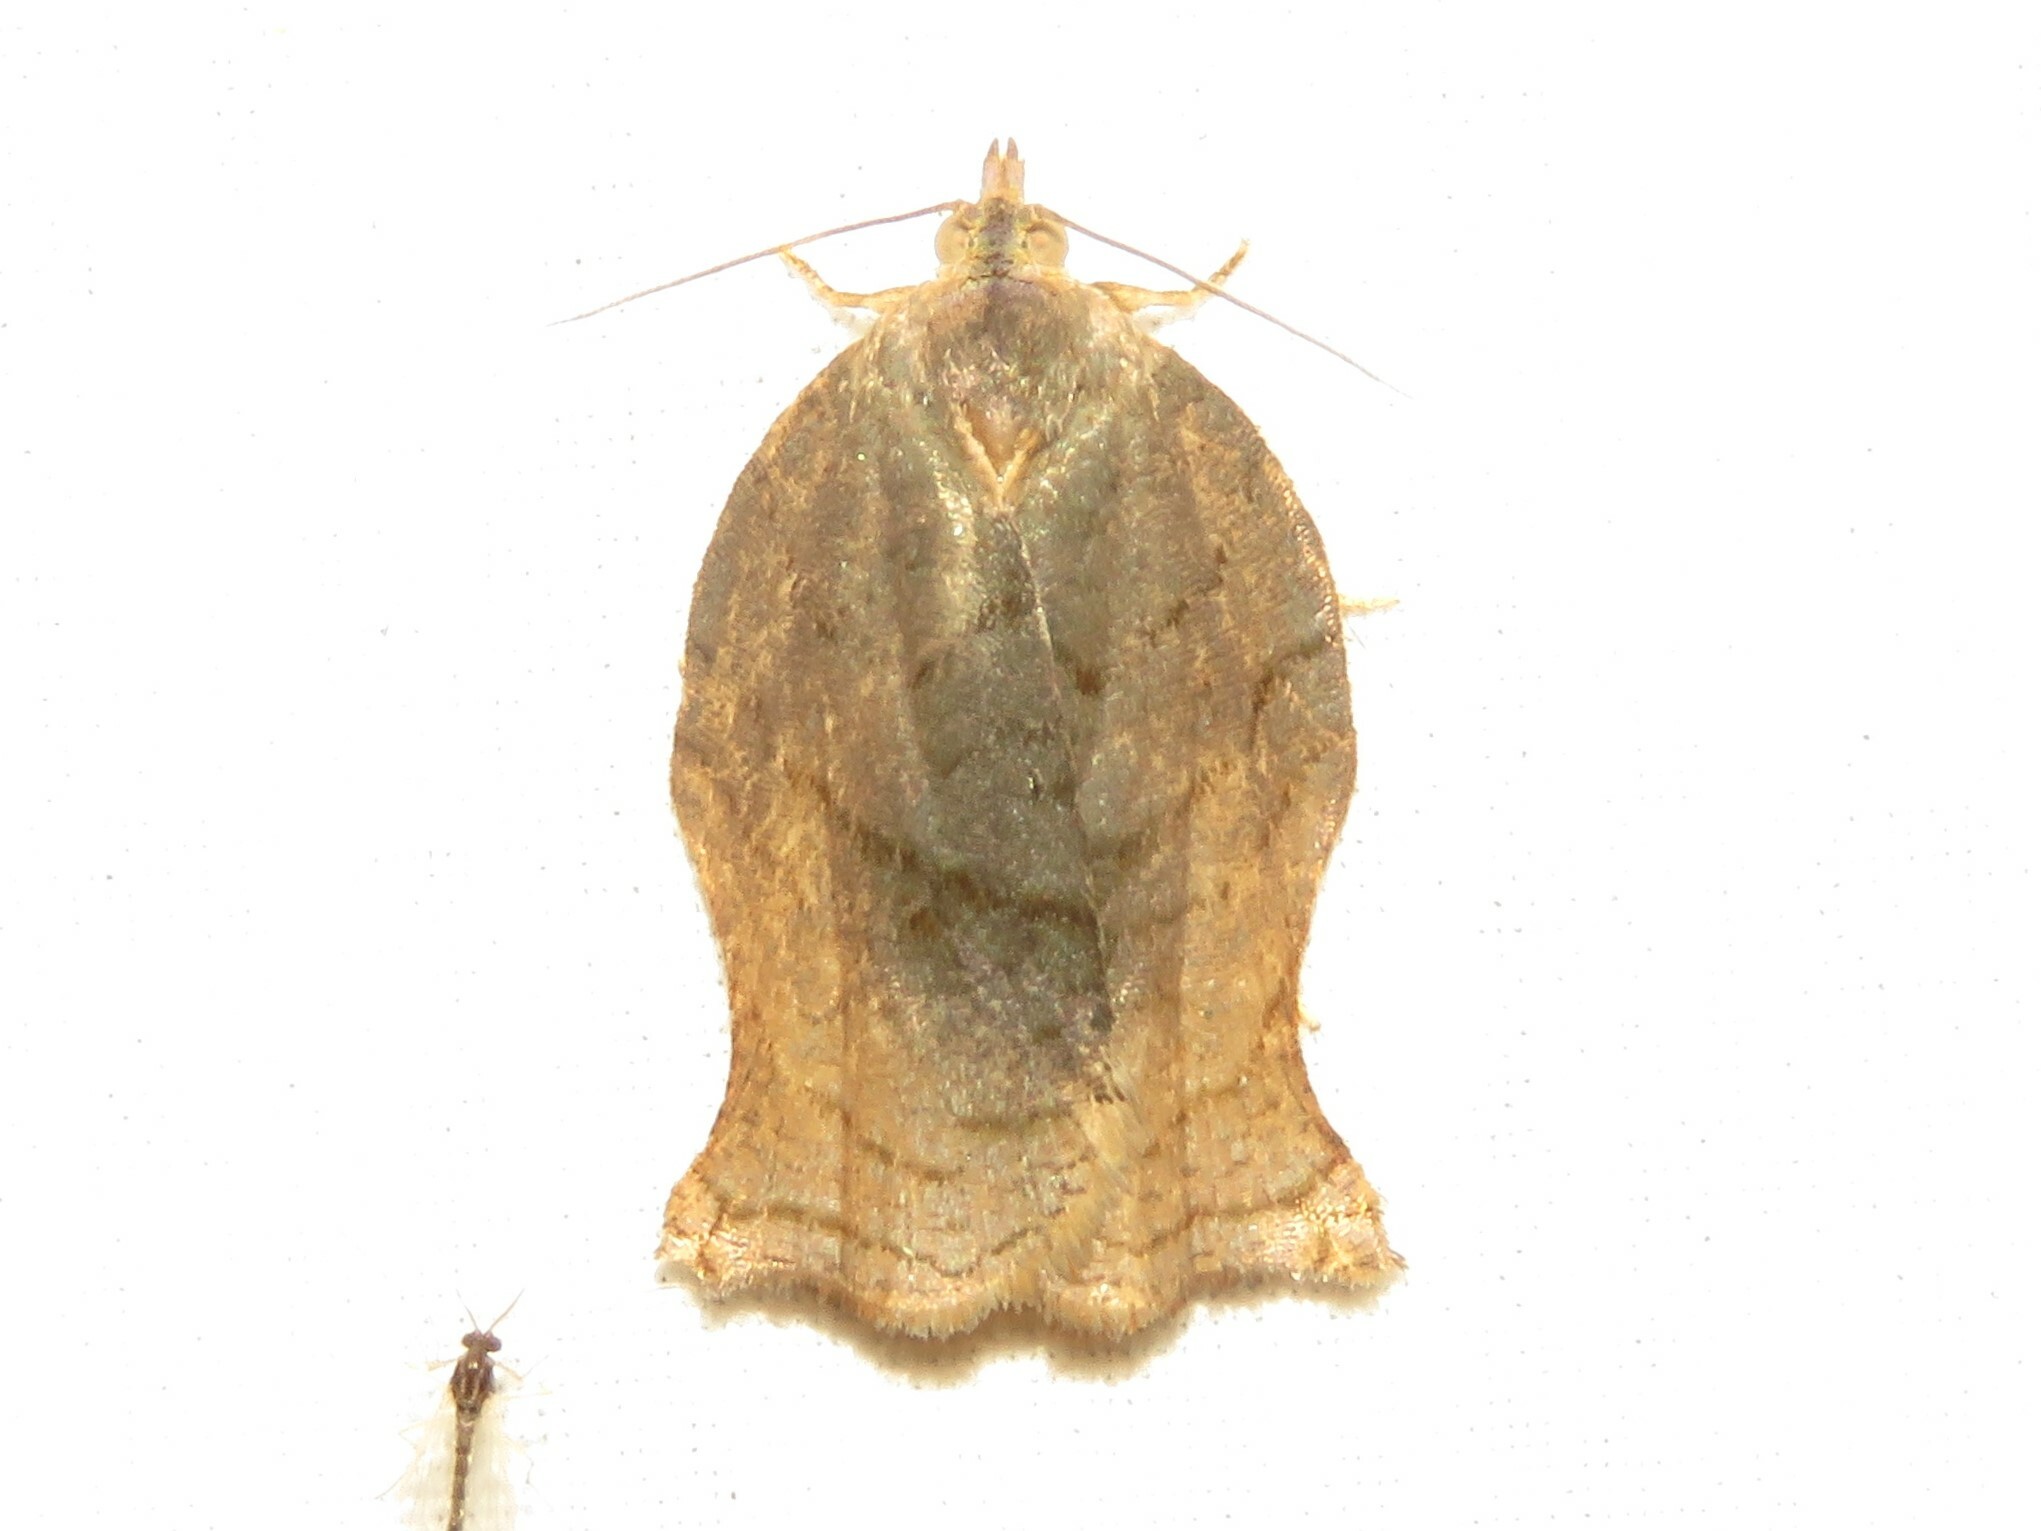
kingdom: Animalia
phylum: Arthropoda
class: Insecta
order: Lepidoptera
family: Tortricidae
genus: Archips
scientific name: Archips purpurana
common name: Omnivorous leafroller
